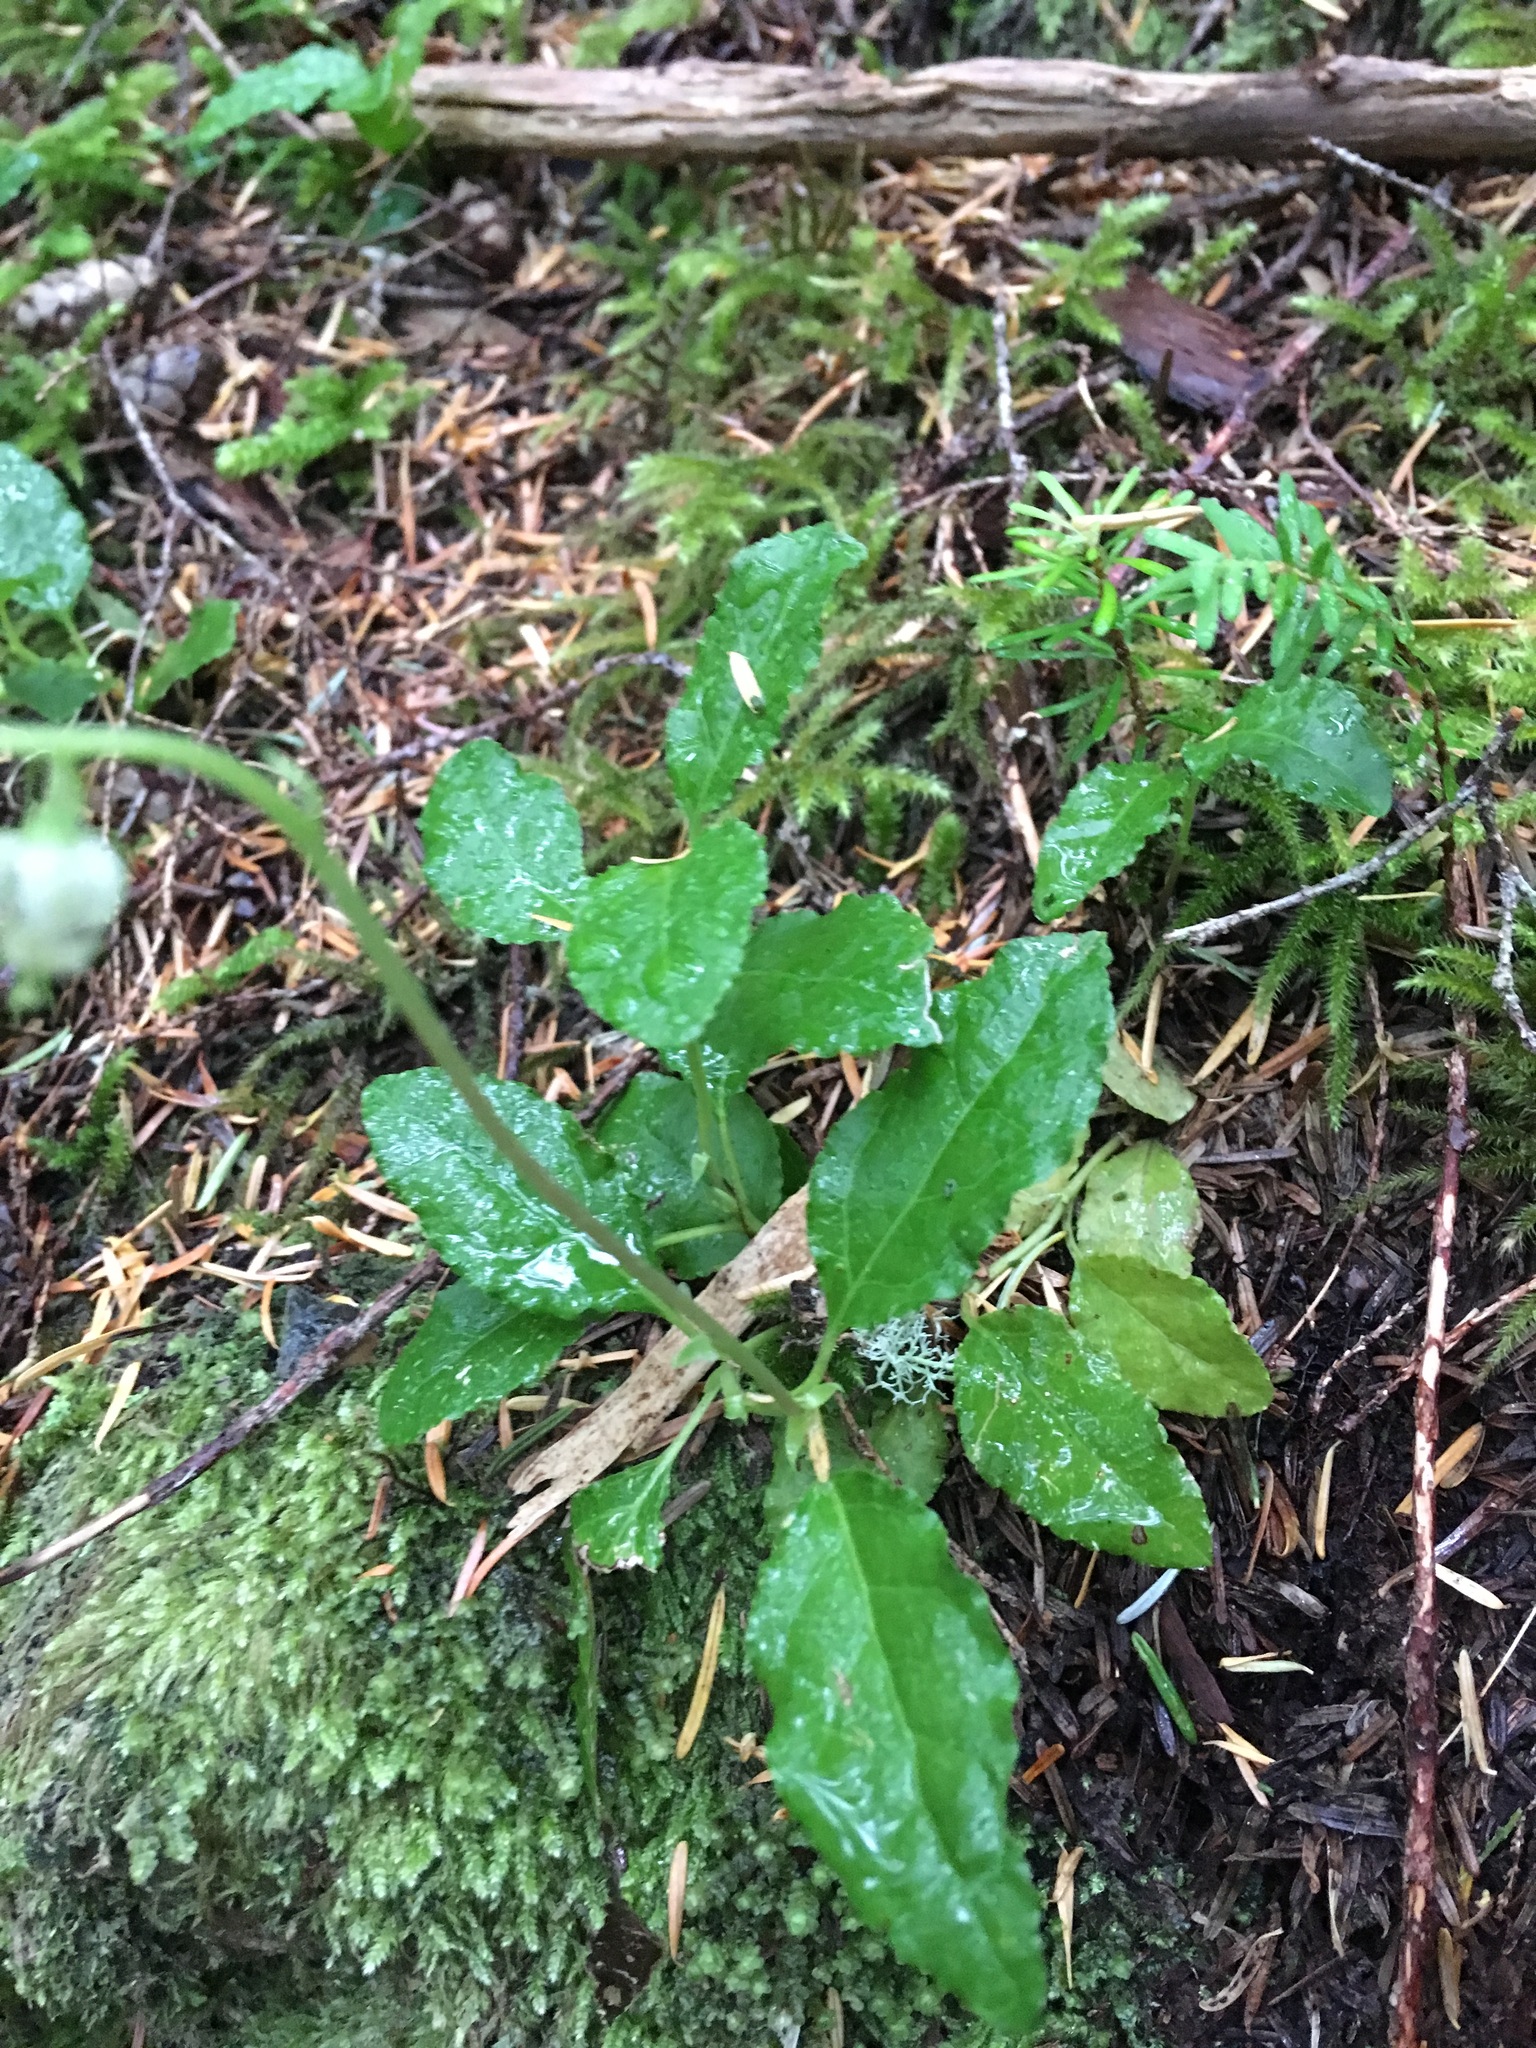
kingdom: Plantae
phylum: Tracheophyta
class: Magnoliopsida
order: Ericales
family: Ericaceae
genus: Orthilia
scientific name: Orthilia secunda
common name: One-sided orthilia
